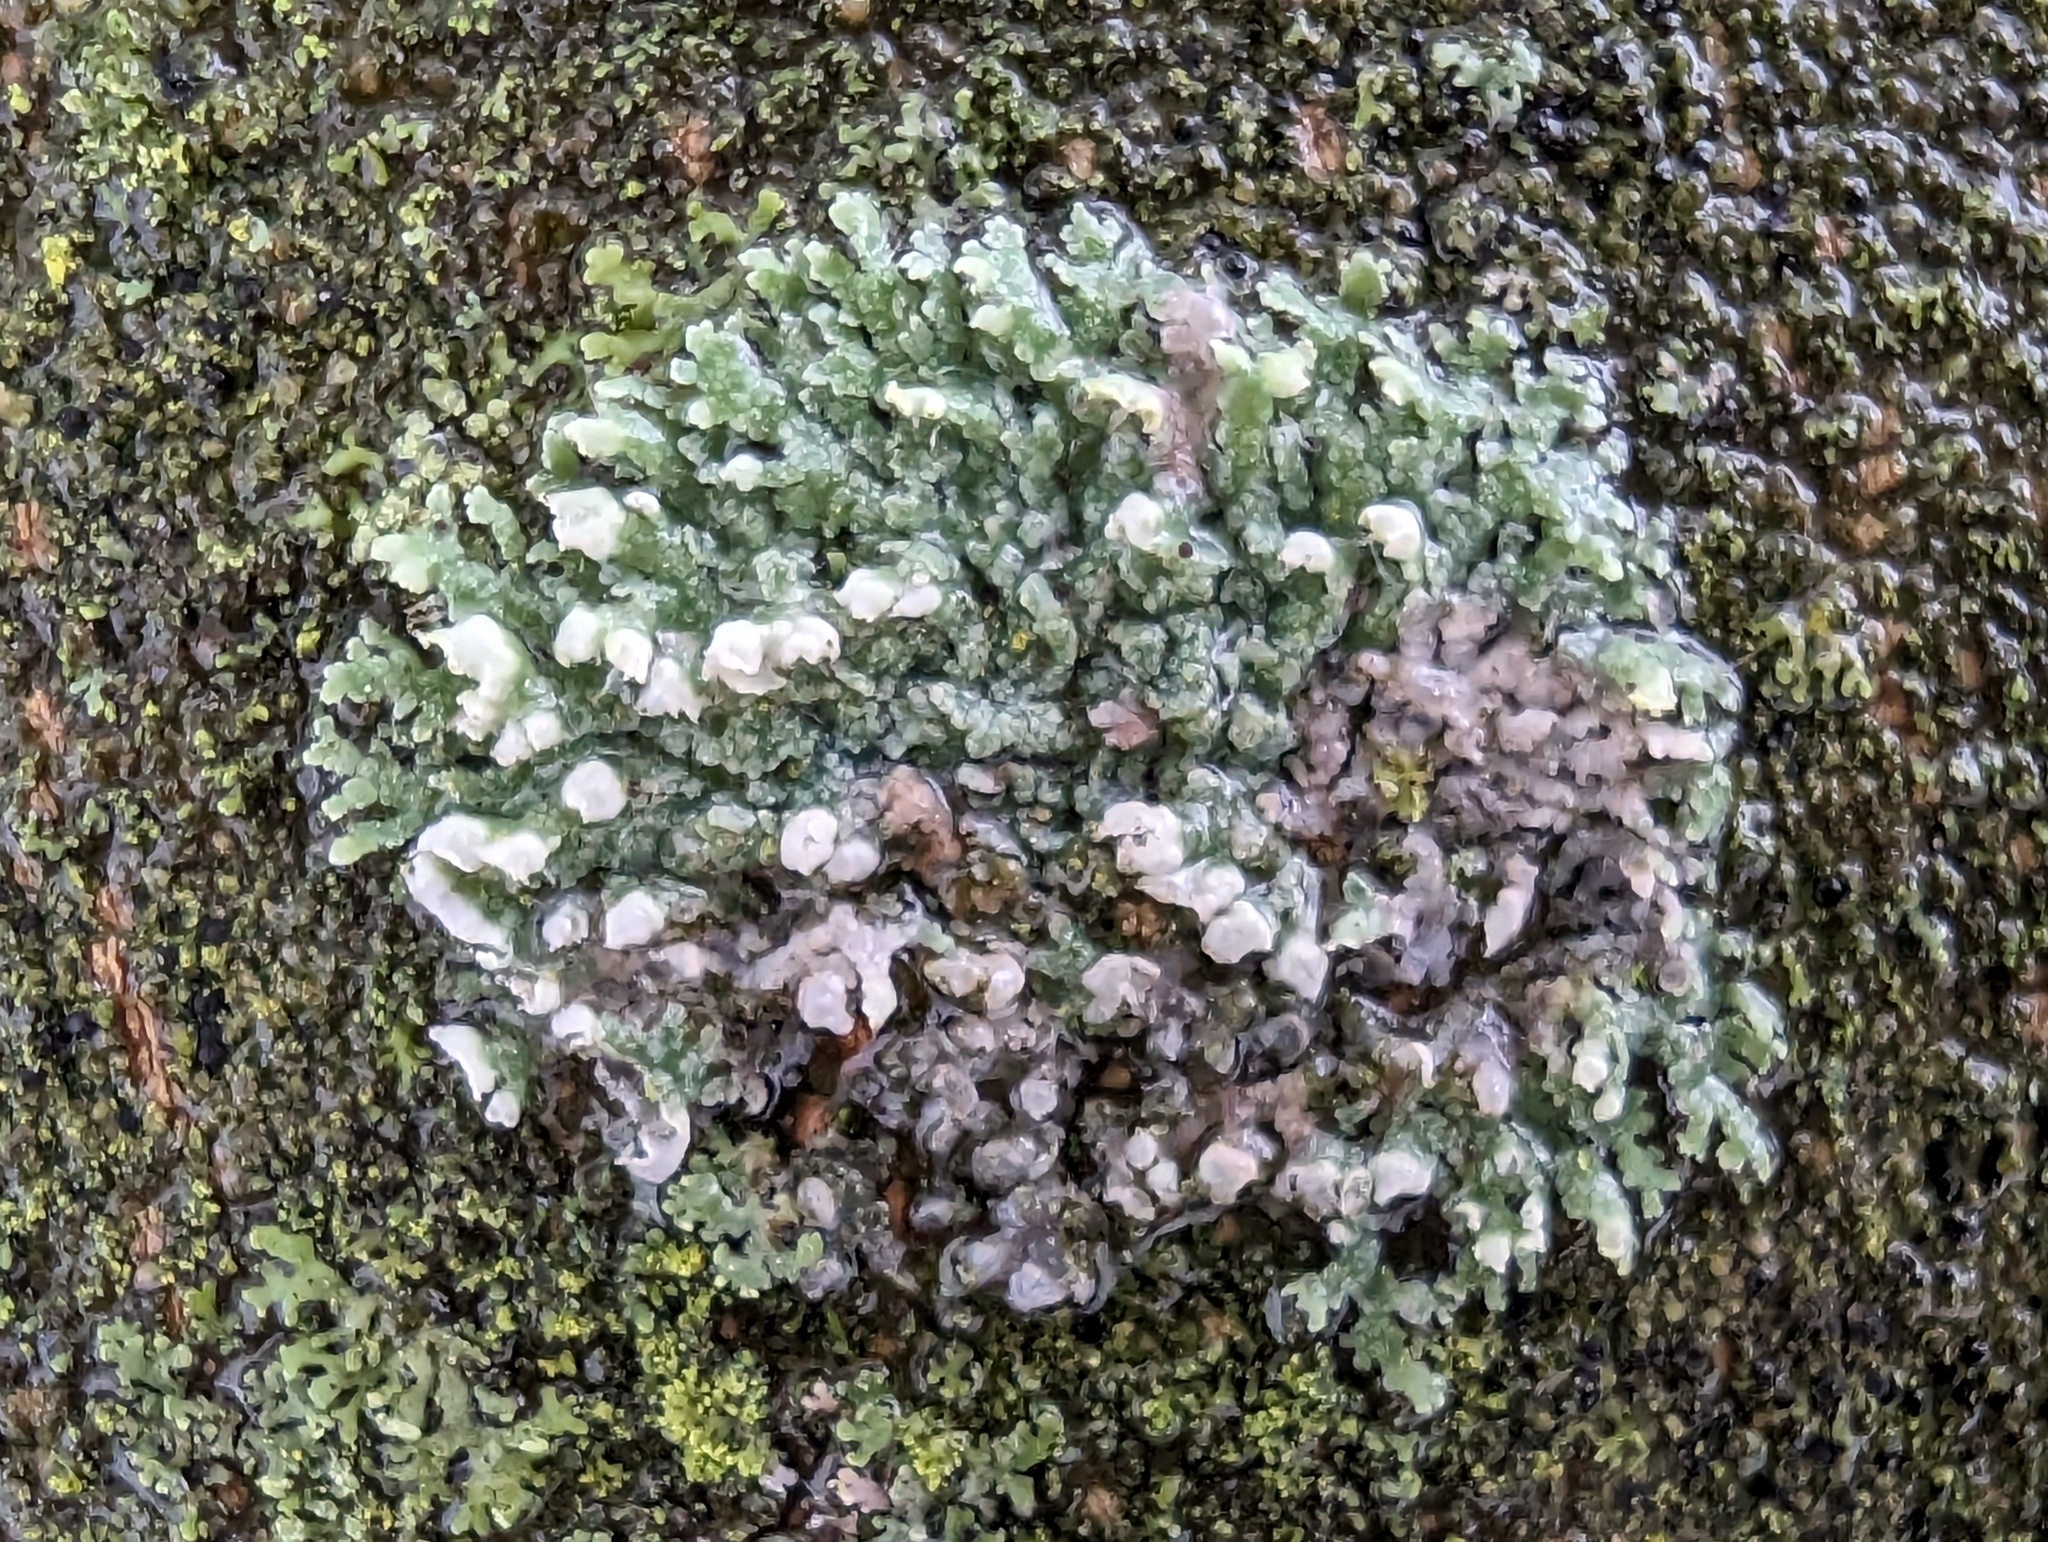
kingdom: Fungi
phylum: Ascomycota
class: Lecanoromycetes
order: Caliciales
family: Physciaceae
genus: Physcia
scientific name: Physcia adscendens
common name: Hooded rosette lichen
